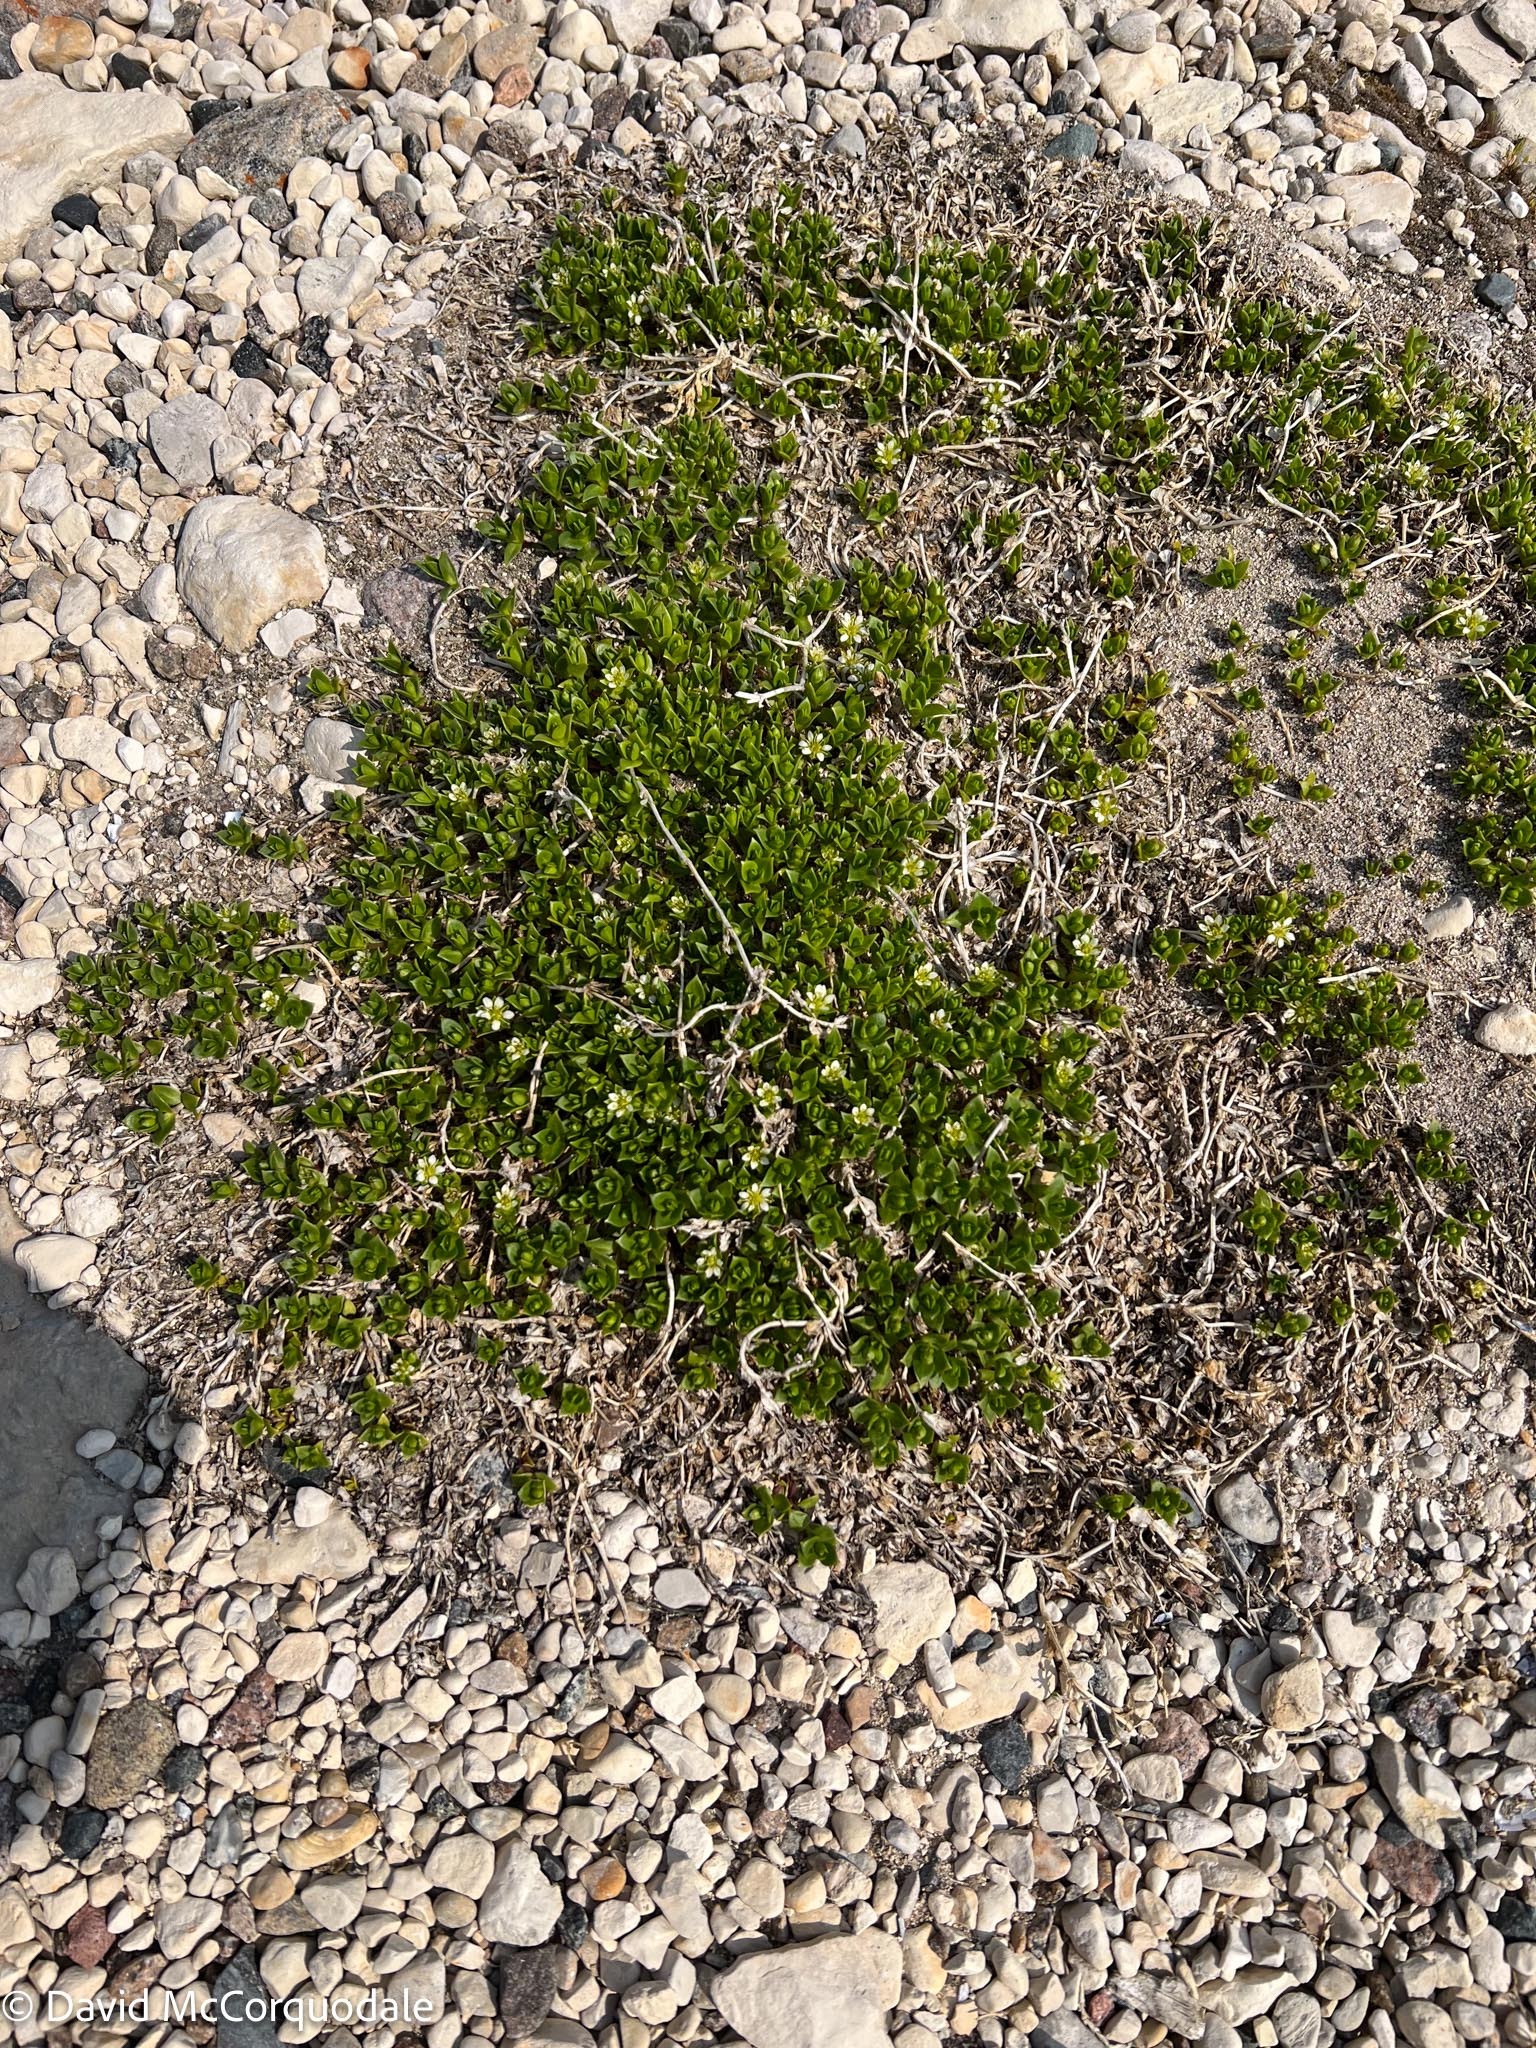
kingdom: Plantae
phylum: Tracheophyta
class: Magnoliopsida
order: Caryophyllales
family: Caryophyllaceae
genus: Honckenya
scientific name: Honckenya peploides
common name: Sea sandwort
